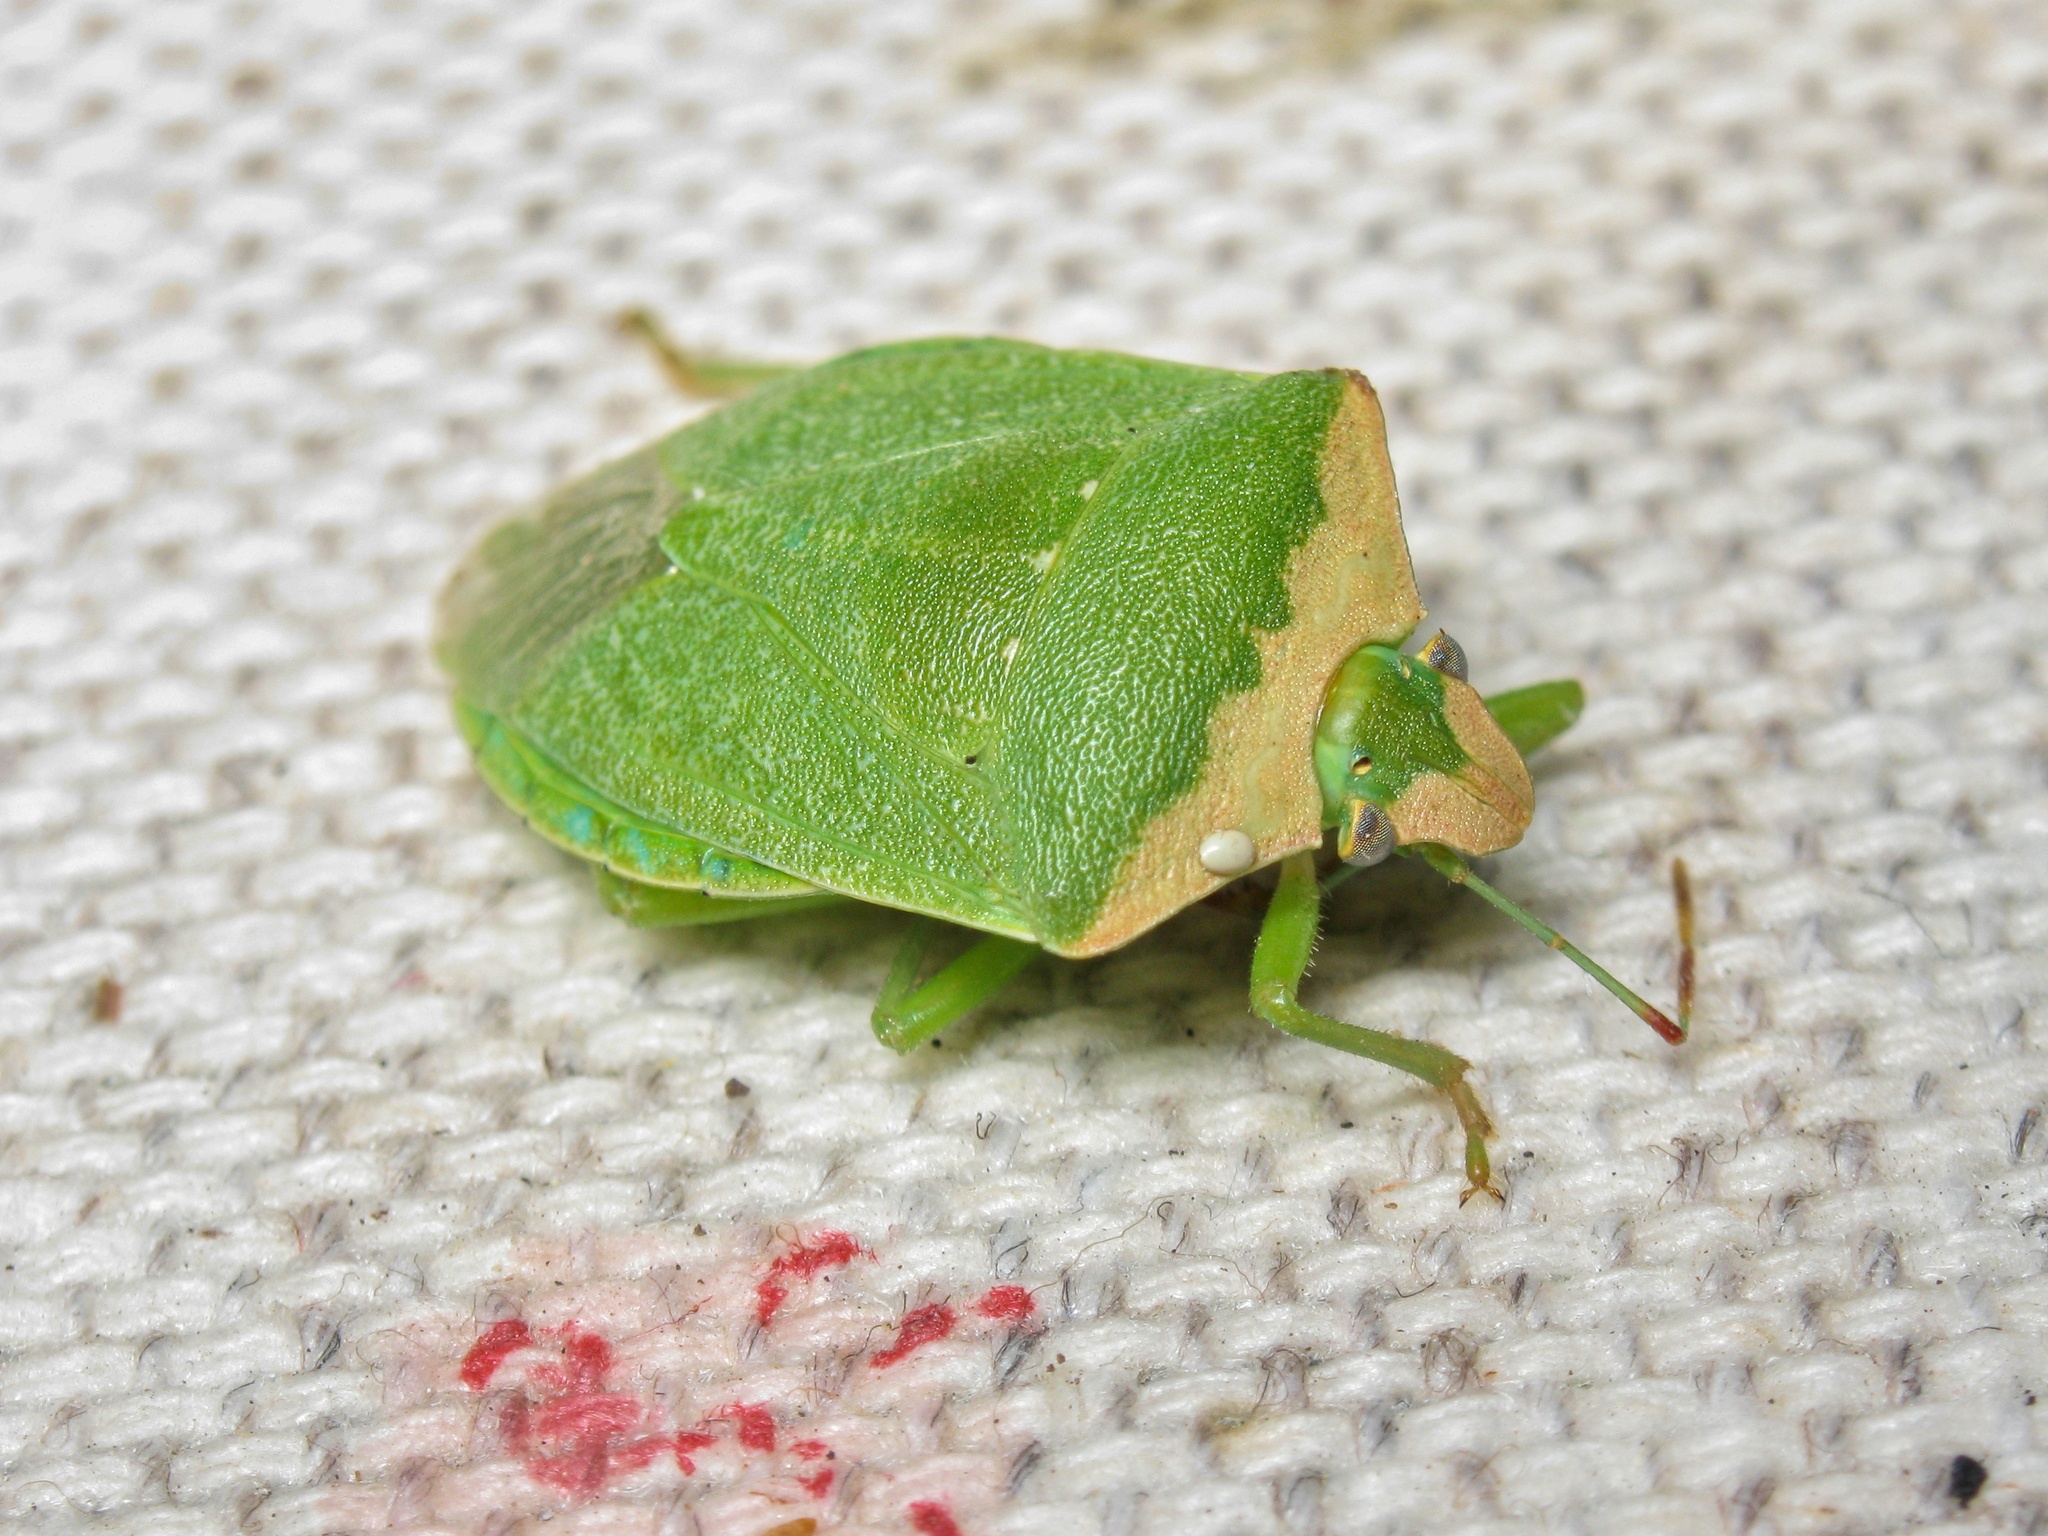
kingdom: Animalia
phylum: Arthropoda
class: Insecta
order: Hemiptera
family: Pentatomidae
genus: Nezara
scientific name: Nezara viridula
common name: Southern green stink bug
